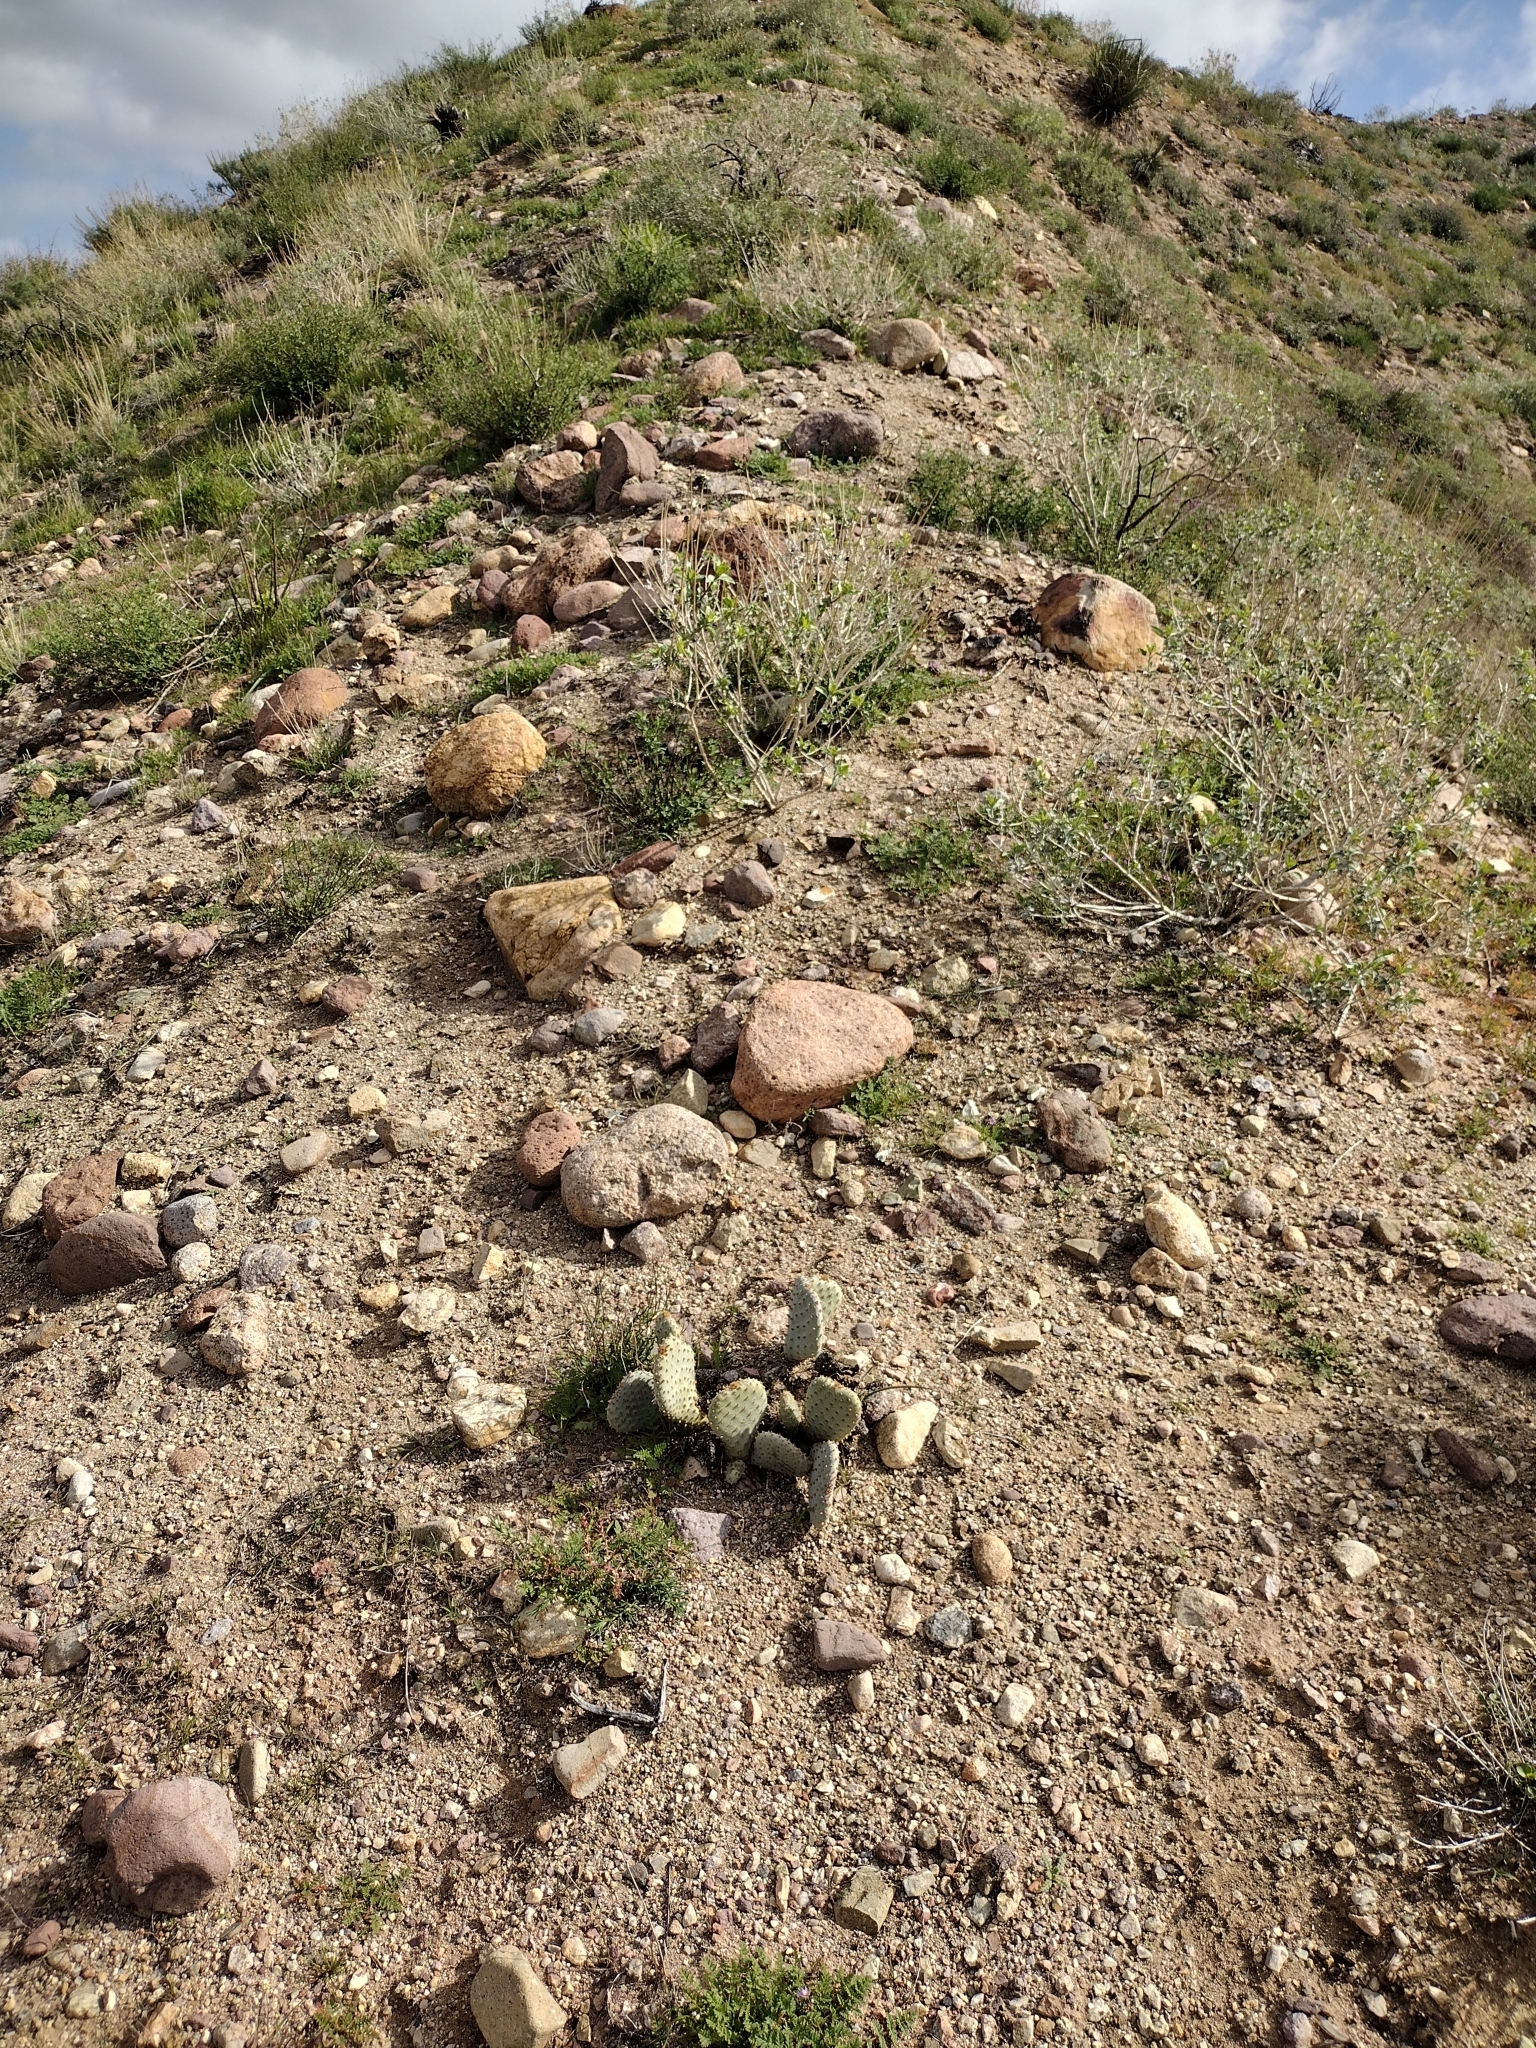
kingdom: Plantae
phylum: Tracheophyta
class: Magnoliopsida
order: Caryophyllales
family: Cactaceae
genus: Opuntia
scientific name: Opuntia basilaris
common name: Beavertail prickly-pear
